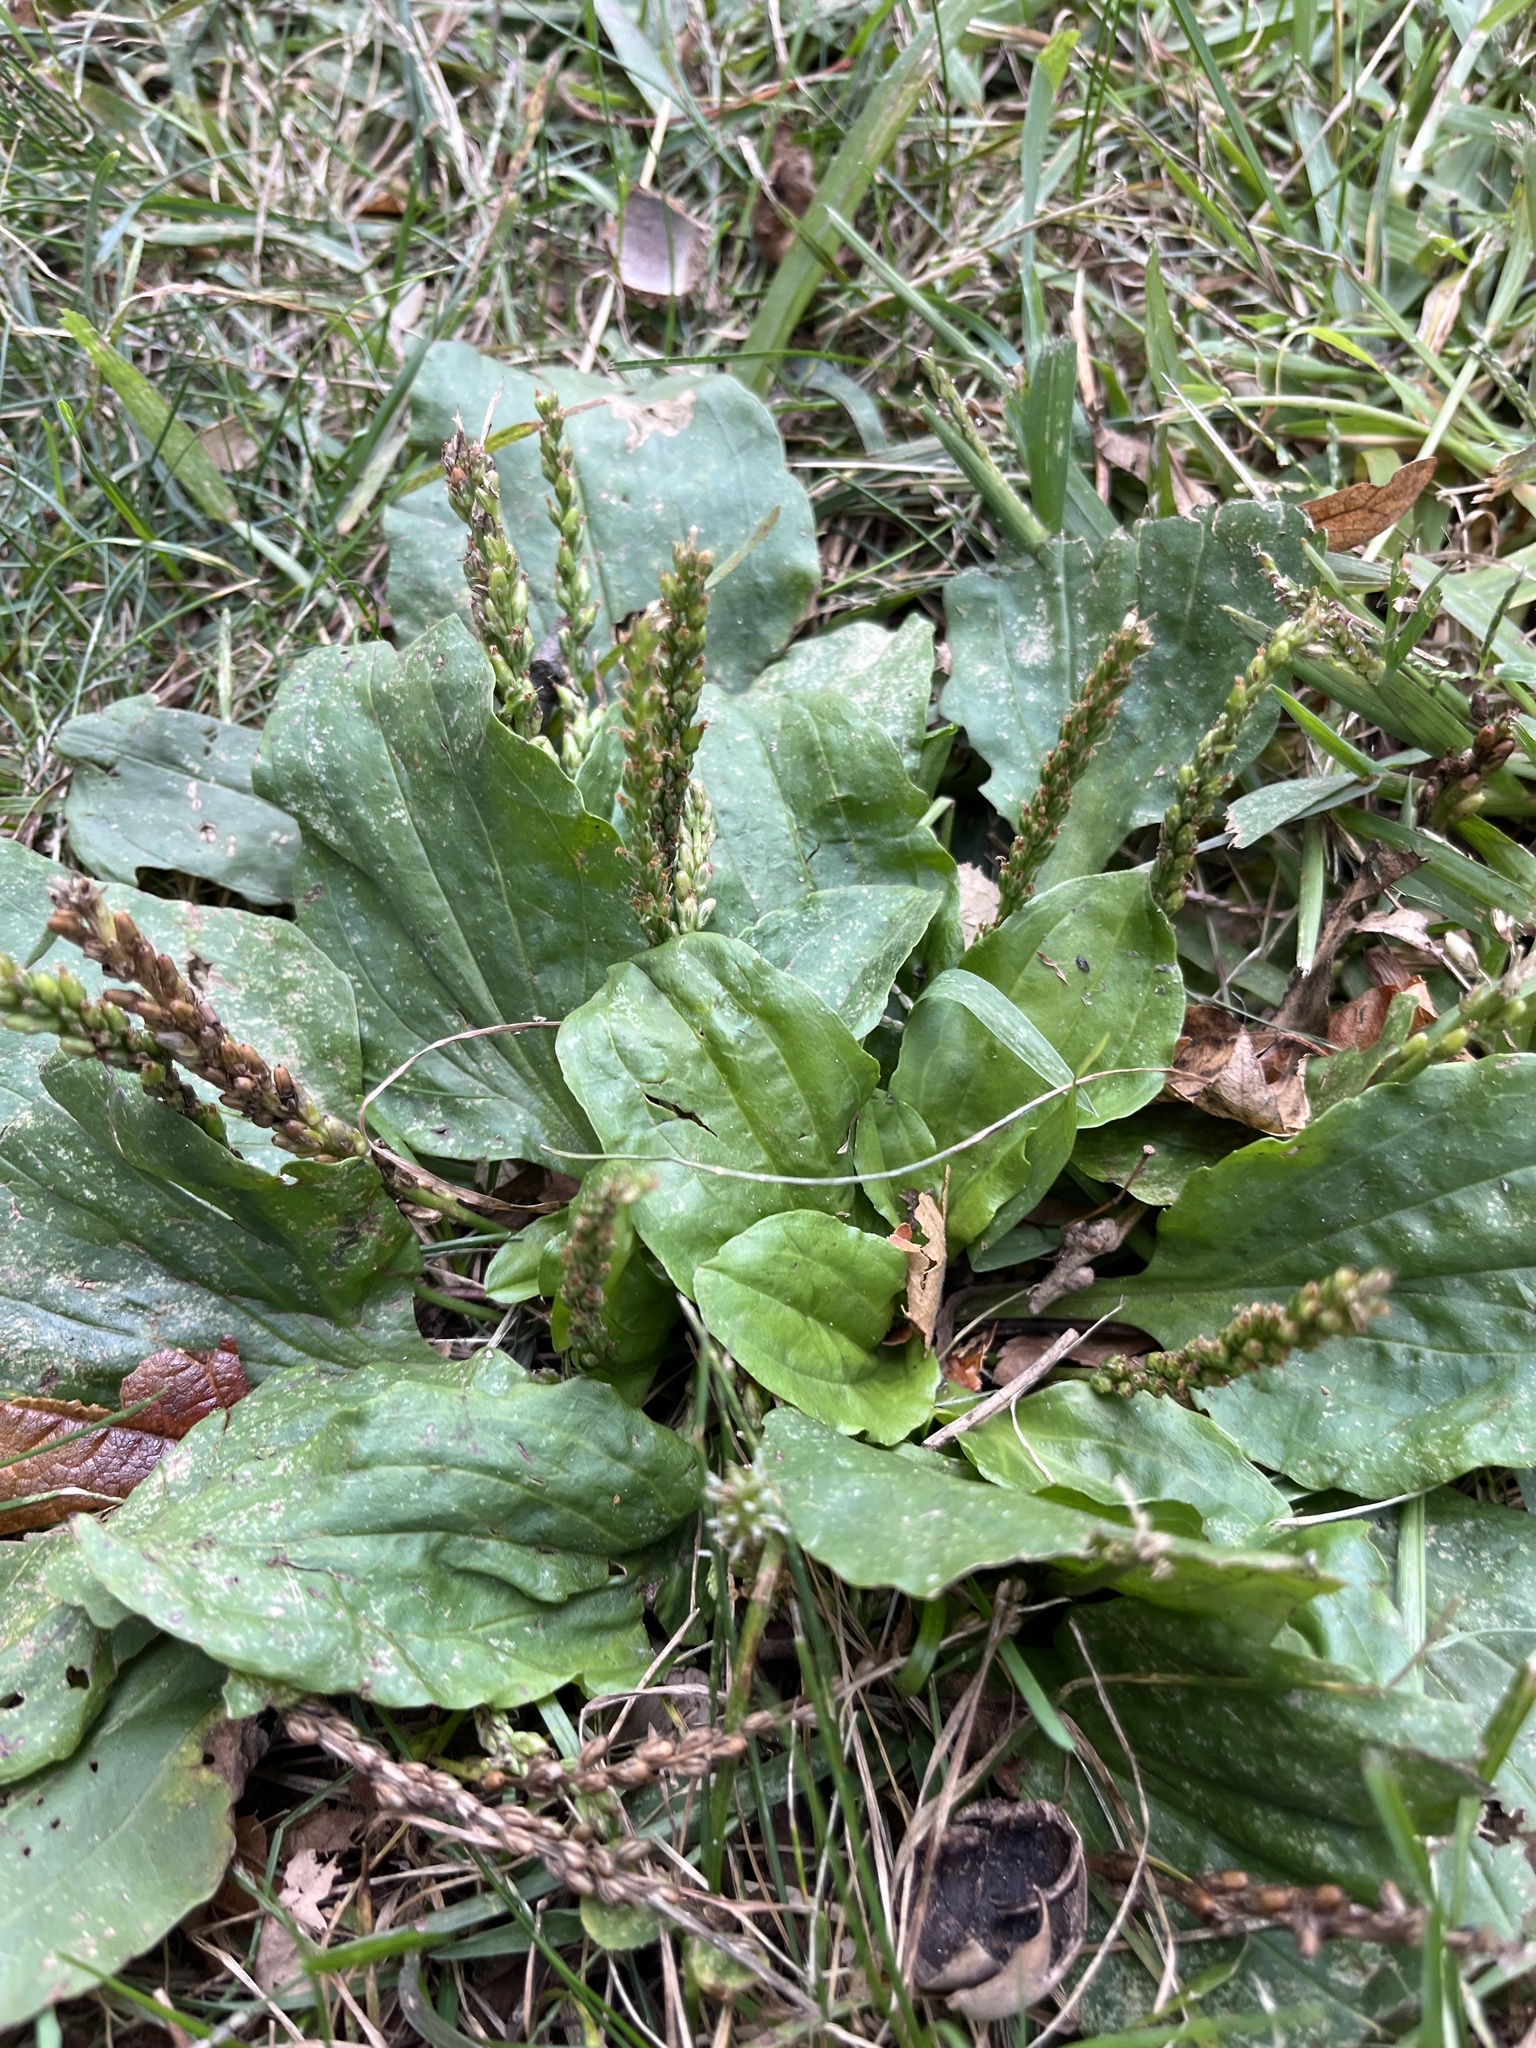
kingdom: Plantae
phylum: Tracheophyta
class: Magnoliopsida
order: Lamiales
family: Plantaginaceae
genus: Plantago
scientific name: Plantago major
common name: Common plantain
